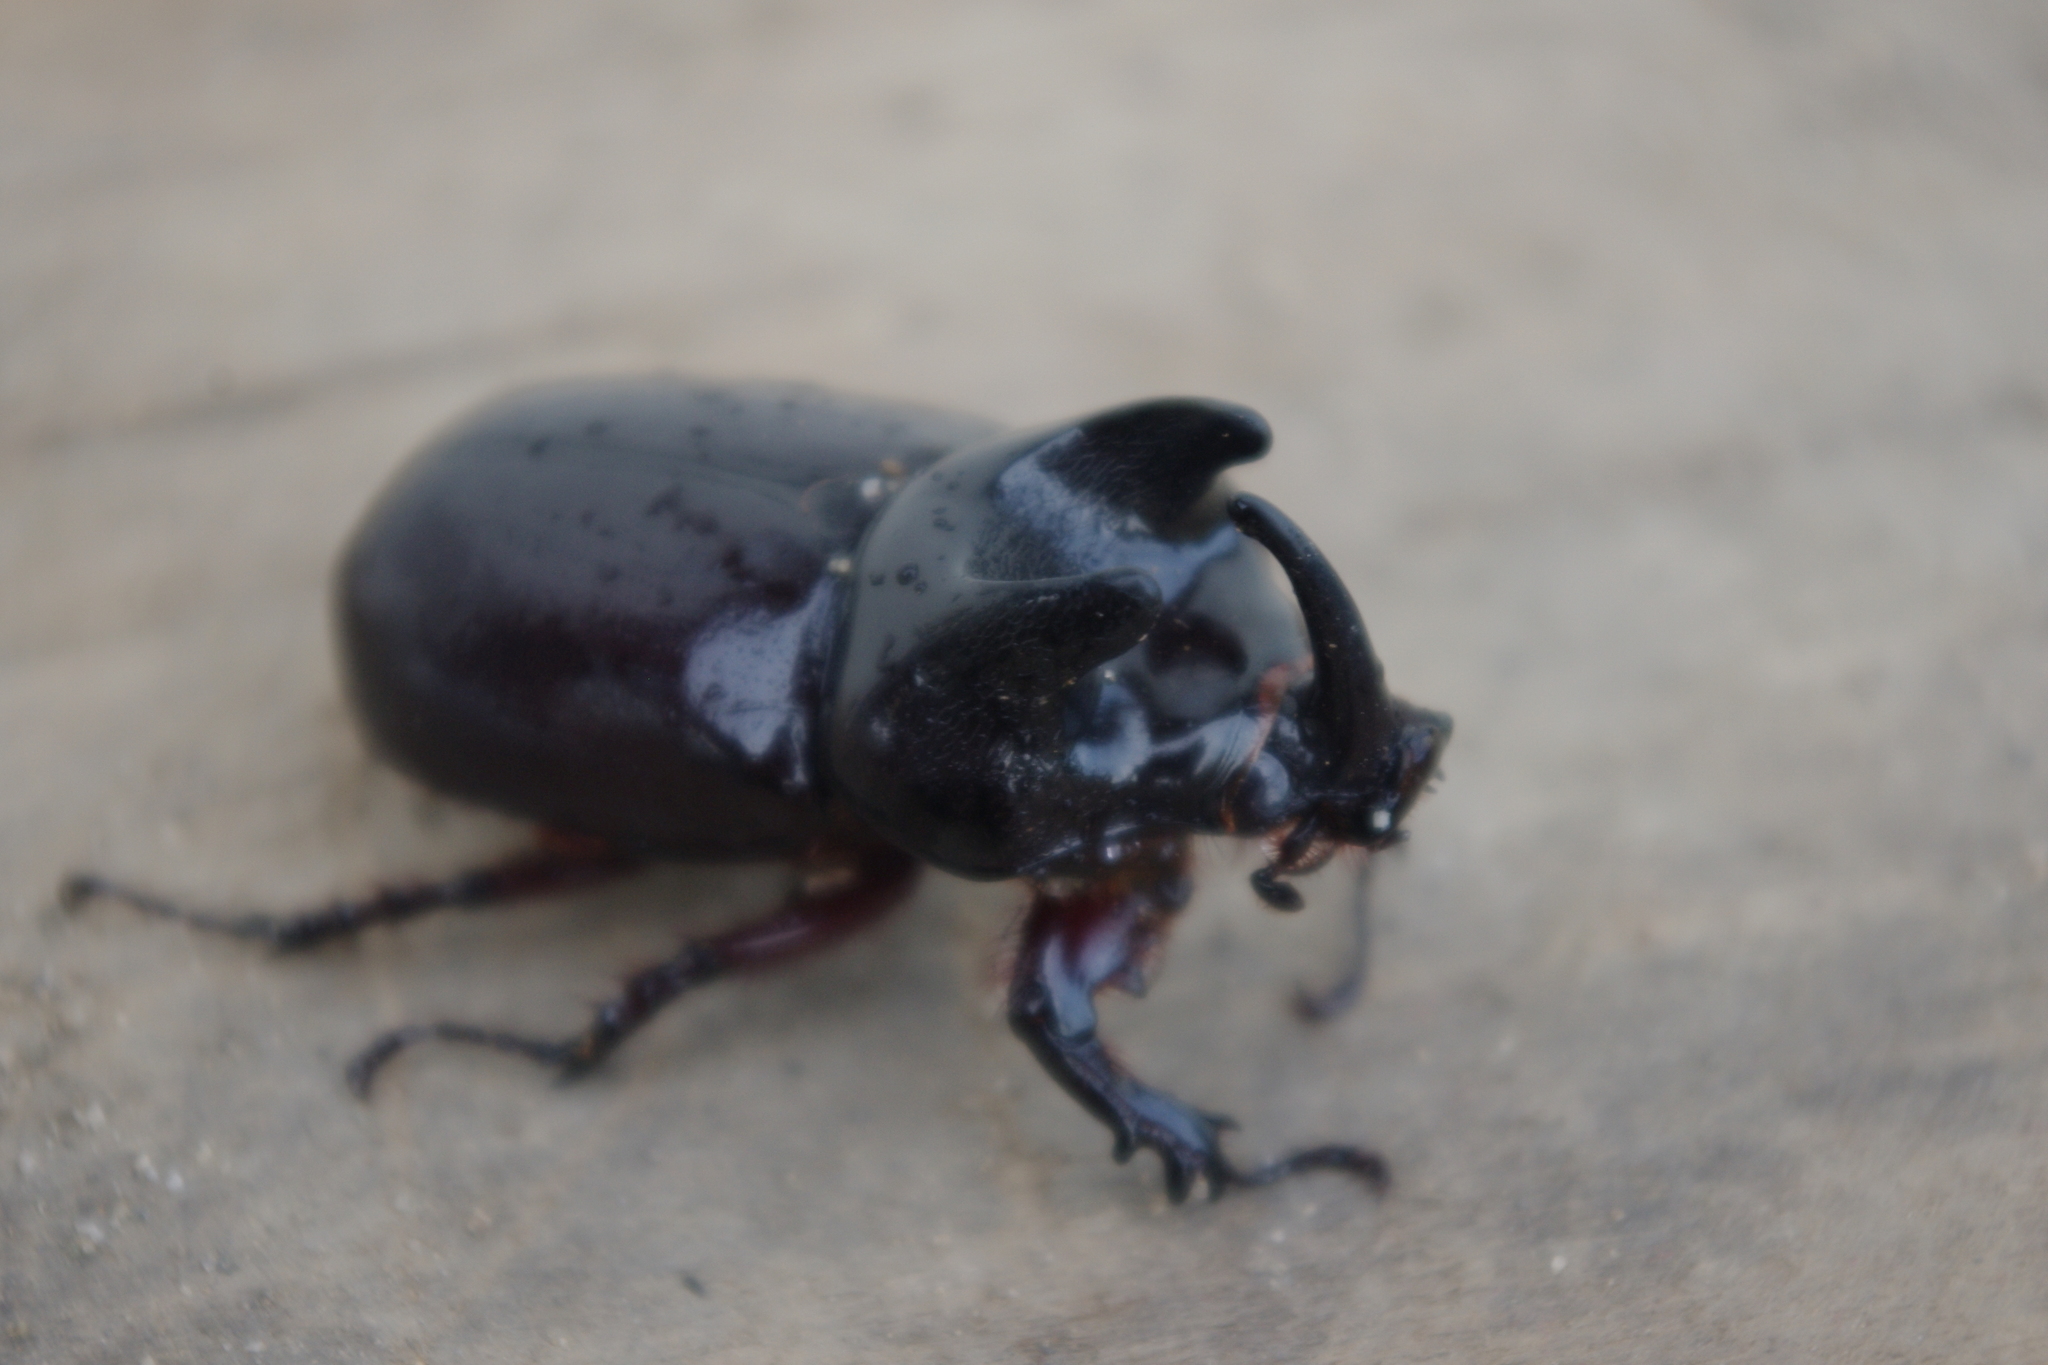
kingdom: Animalia
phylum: Arthropoda
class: Insecta
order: Coleoptera
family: Scarabaeidae
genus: Scapanes
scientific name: Scapanes australis
